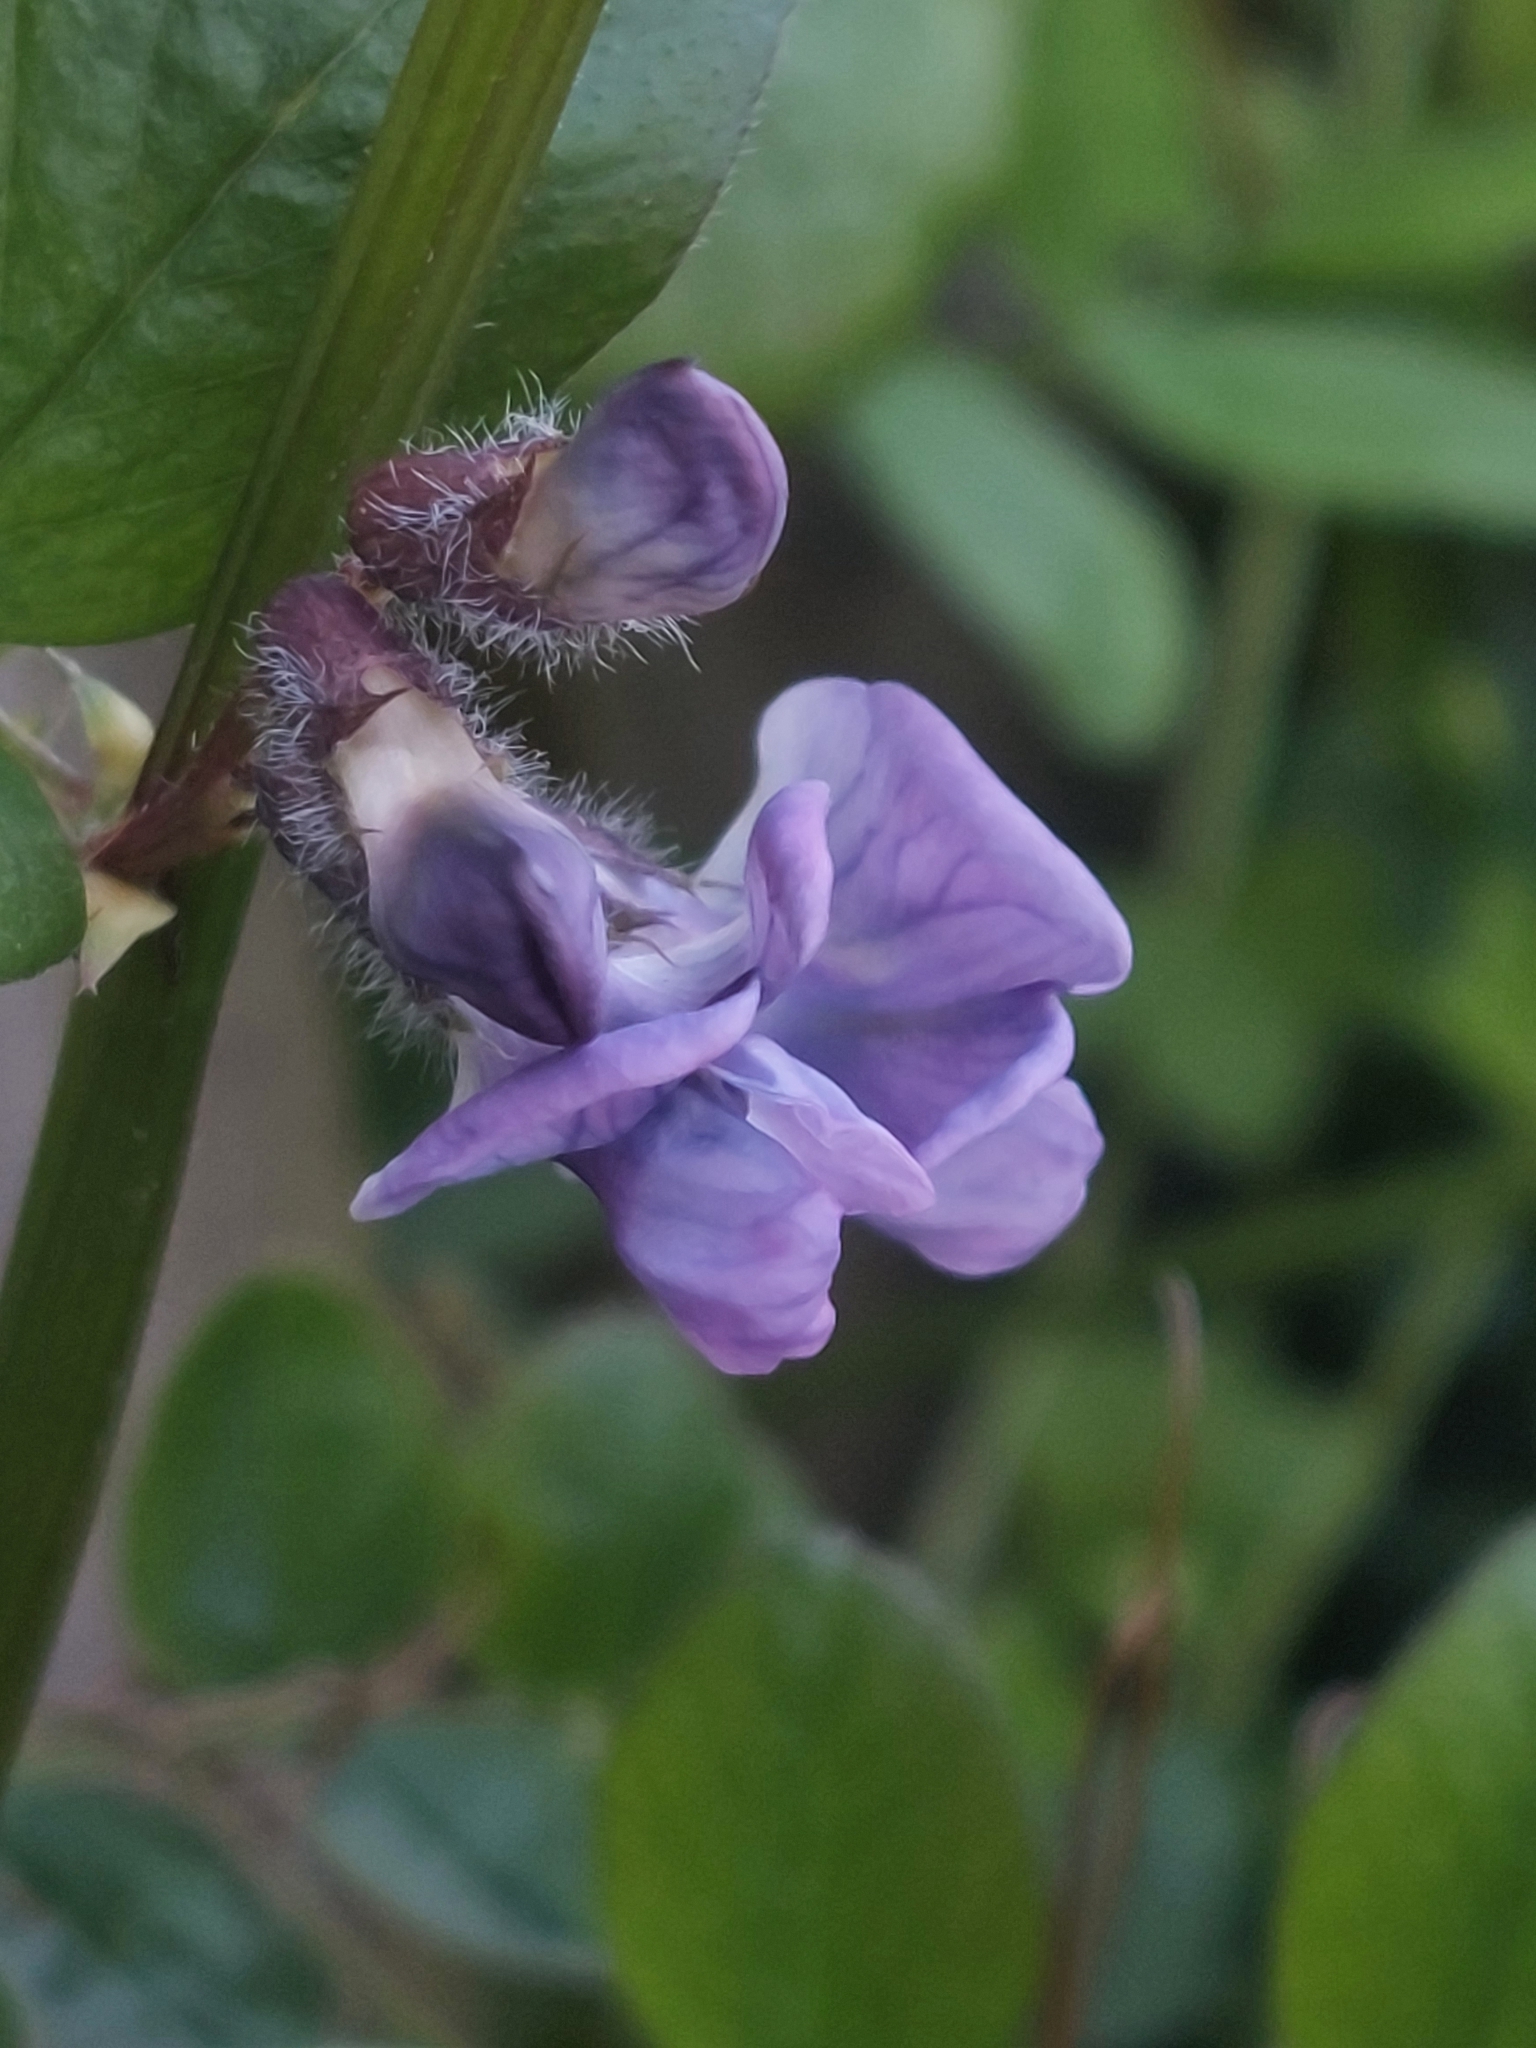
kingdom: Plantae
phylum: Tracheophyta
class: Magnoliopsida
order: Fabales
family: Fabaceae
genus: Vicia
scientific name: Vicia sepium
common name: Bush vetch
